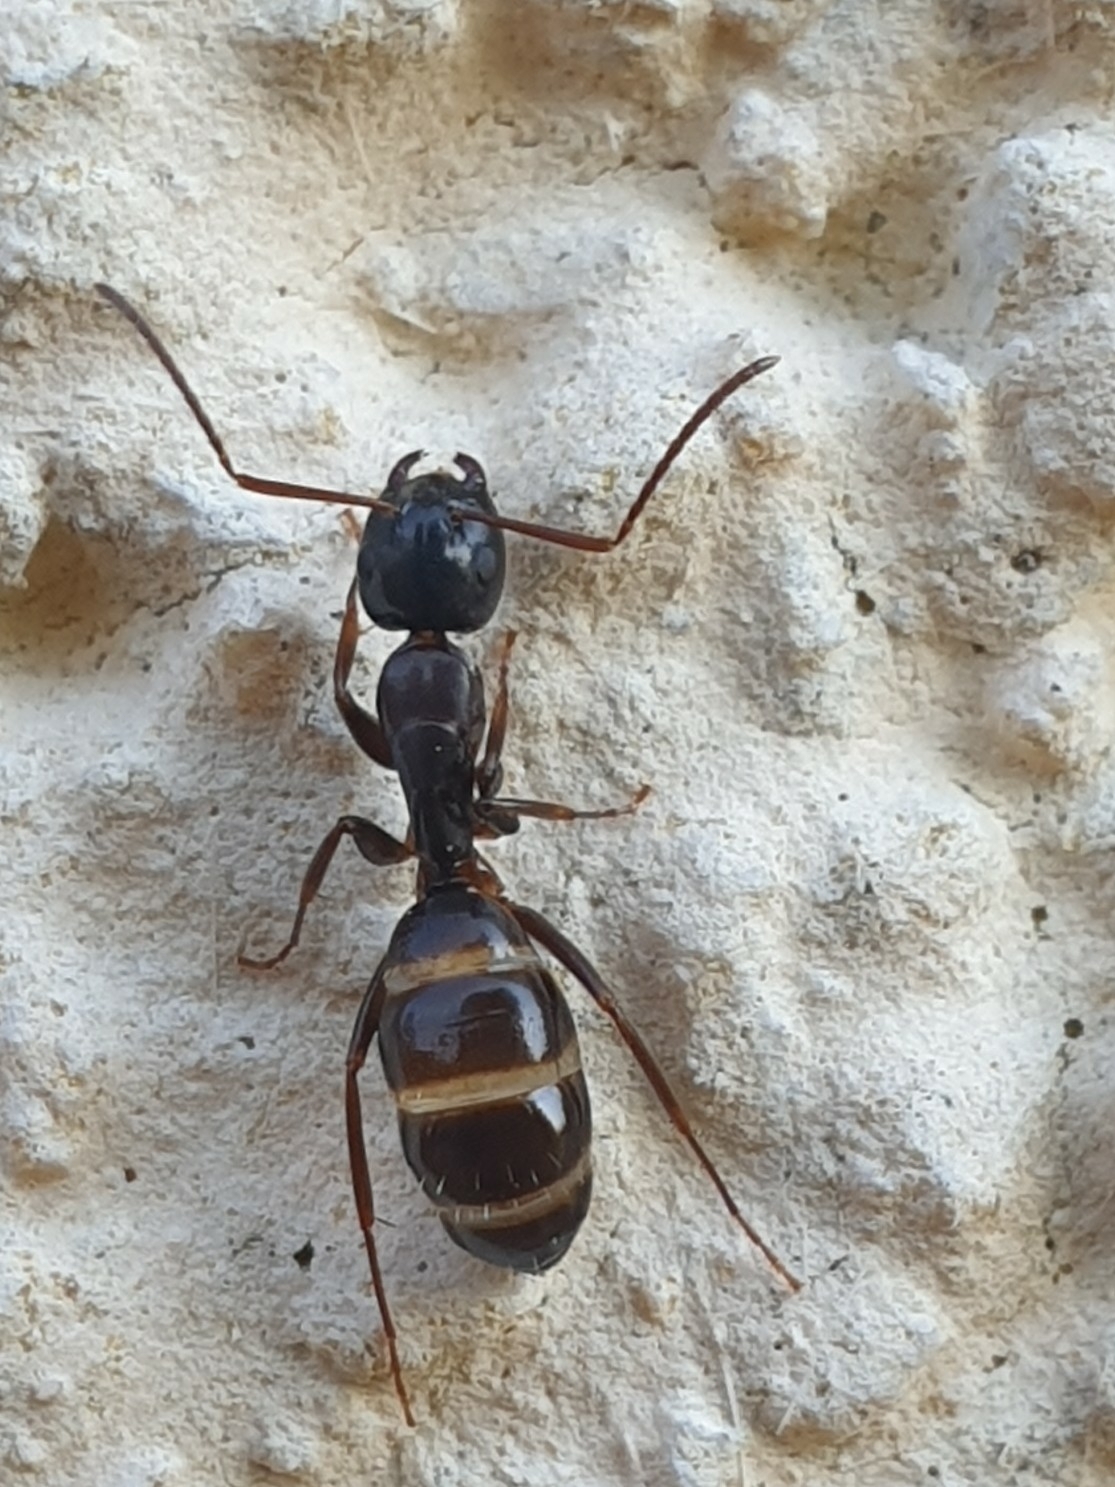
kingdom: Animalia
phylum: Arthropoda
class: Insecta
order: Hymenoptera
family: Formicidae
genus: Camponotus
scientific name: Camponotus fallax
